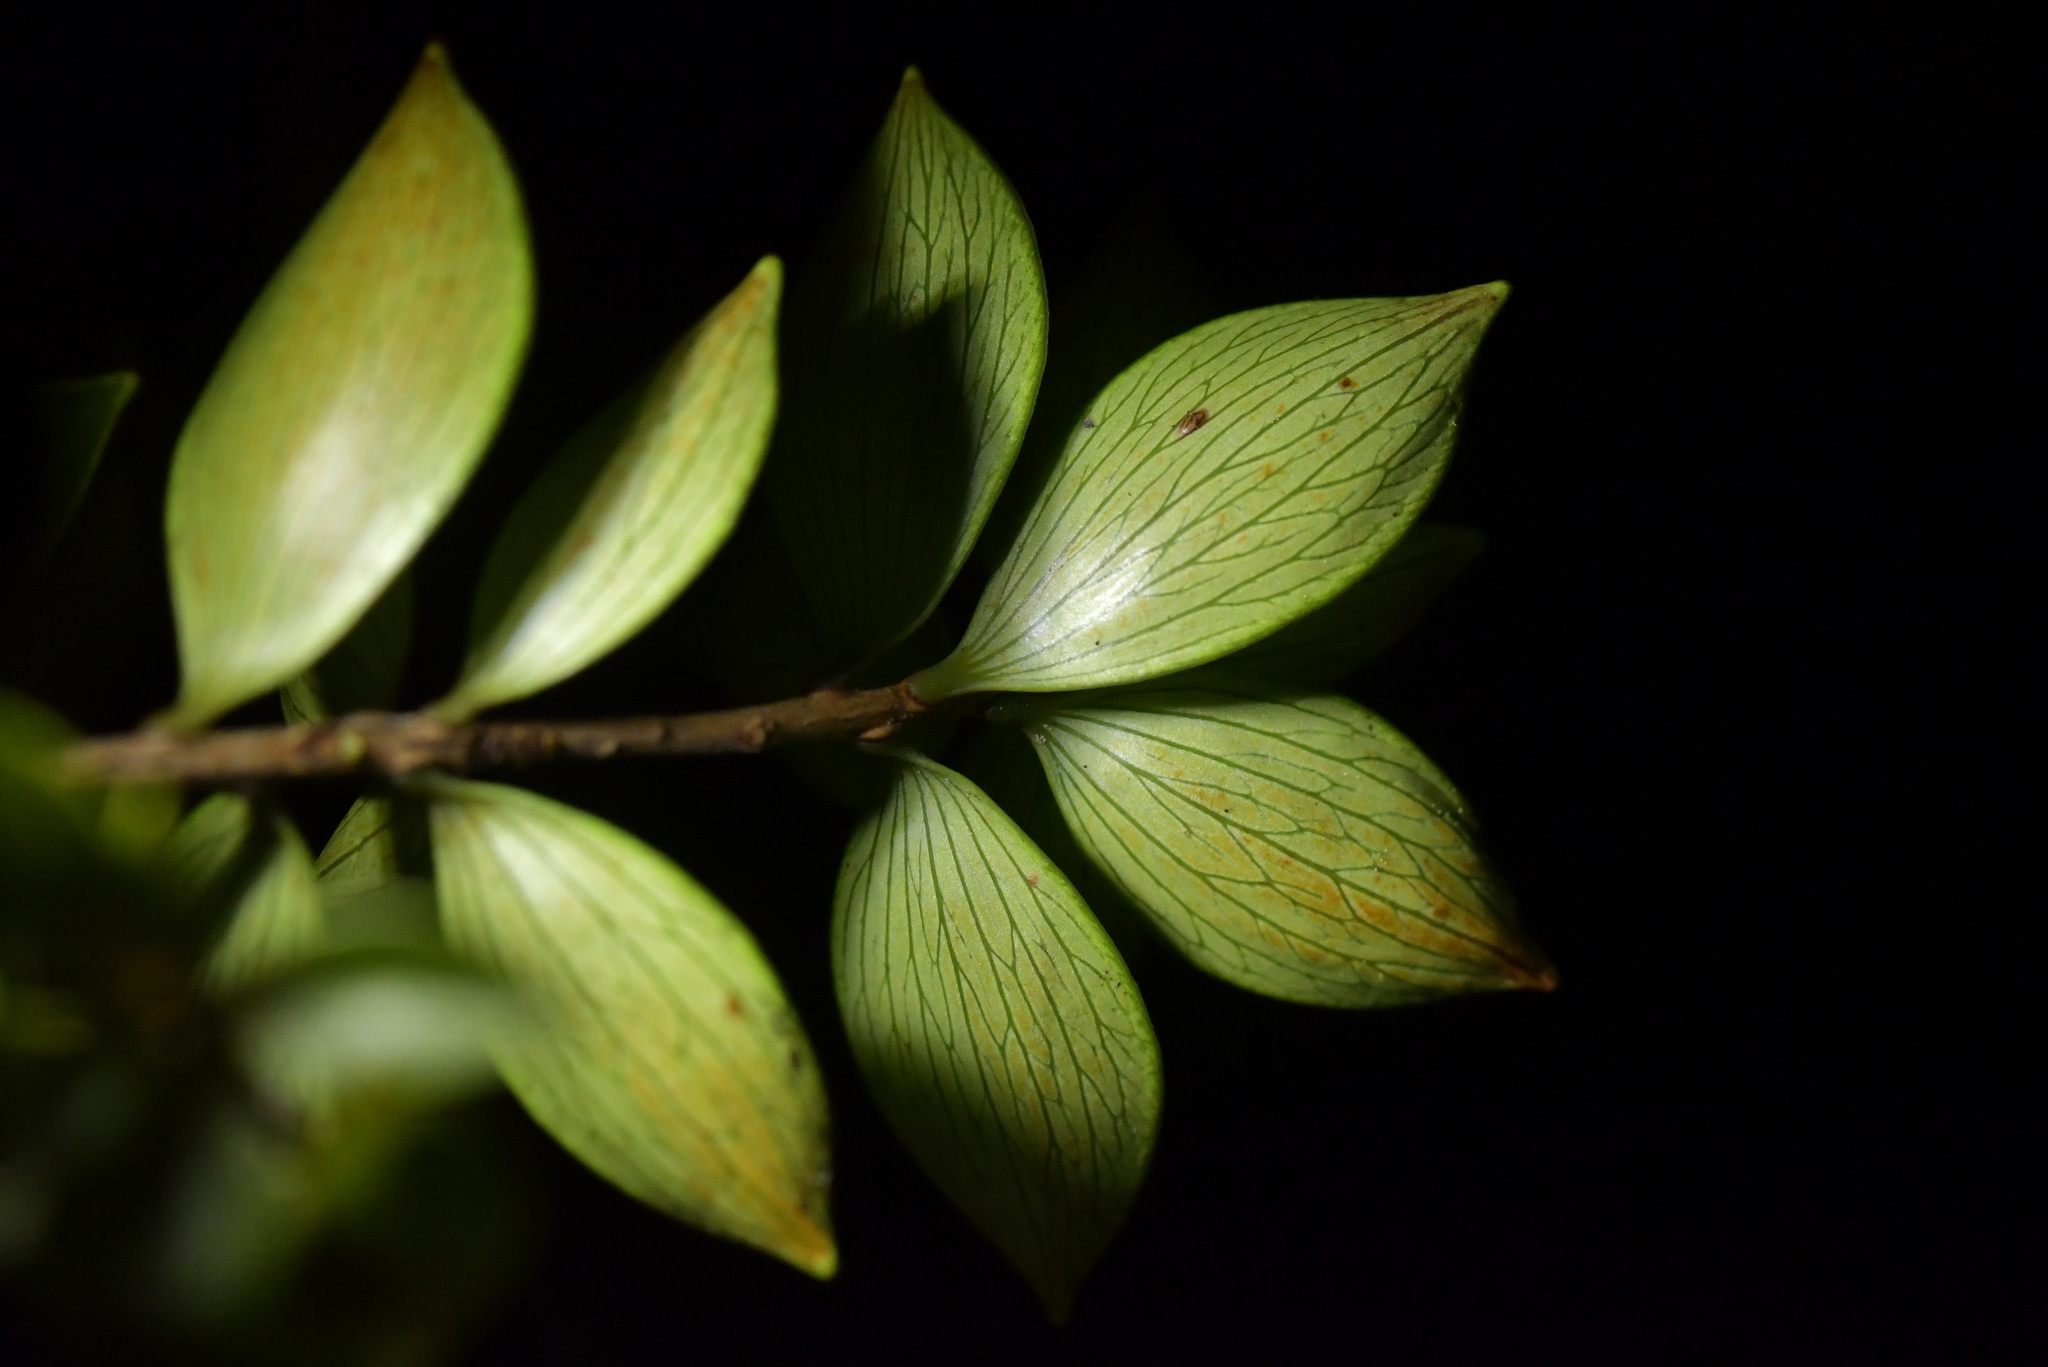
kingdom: Plantae
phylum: Tracheophyta
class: Magnoliopsida
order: Ericales
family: Ericaceae
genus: Archeria
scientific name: Archeria racemosa
